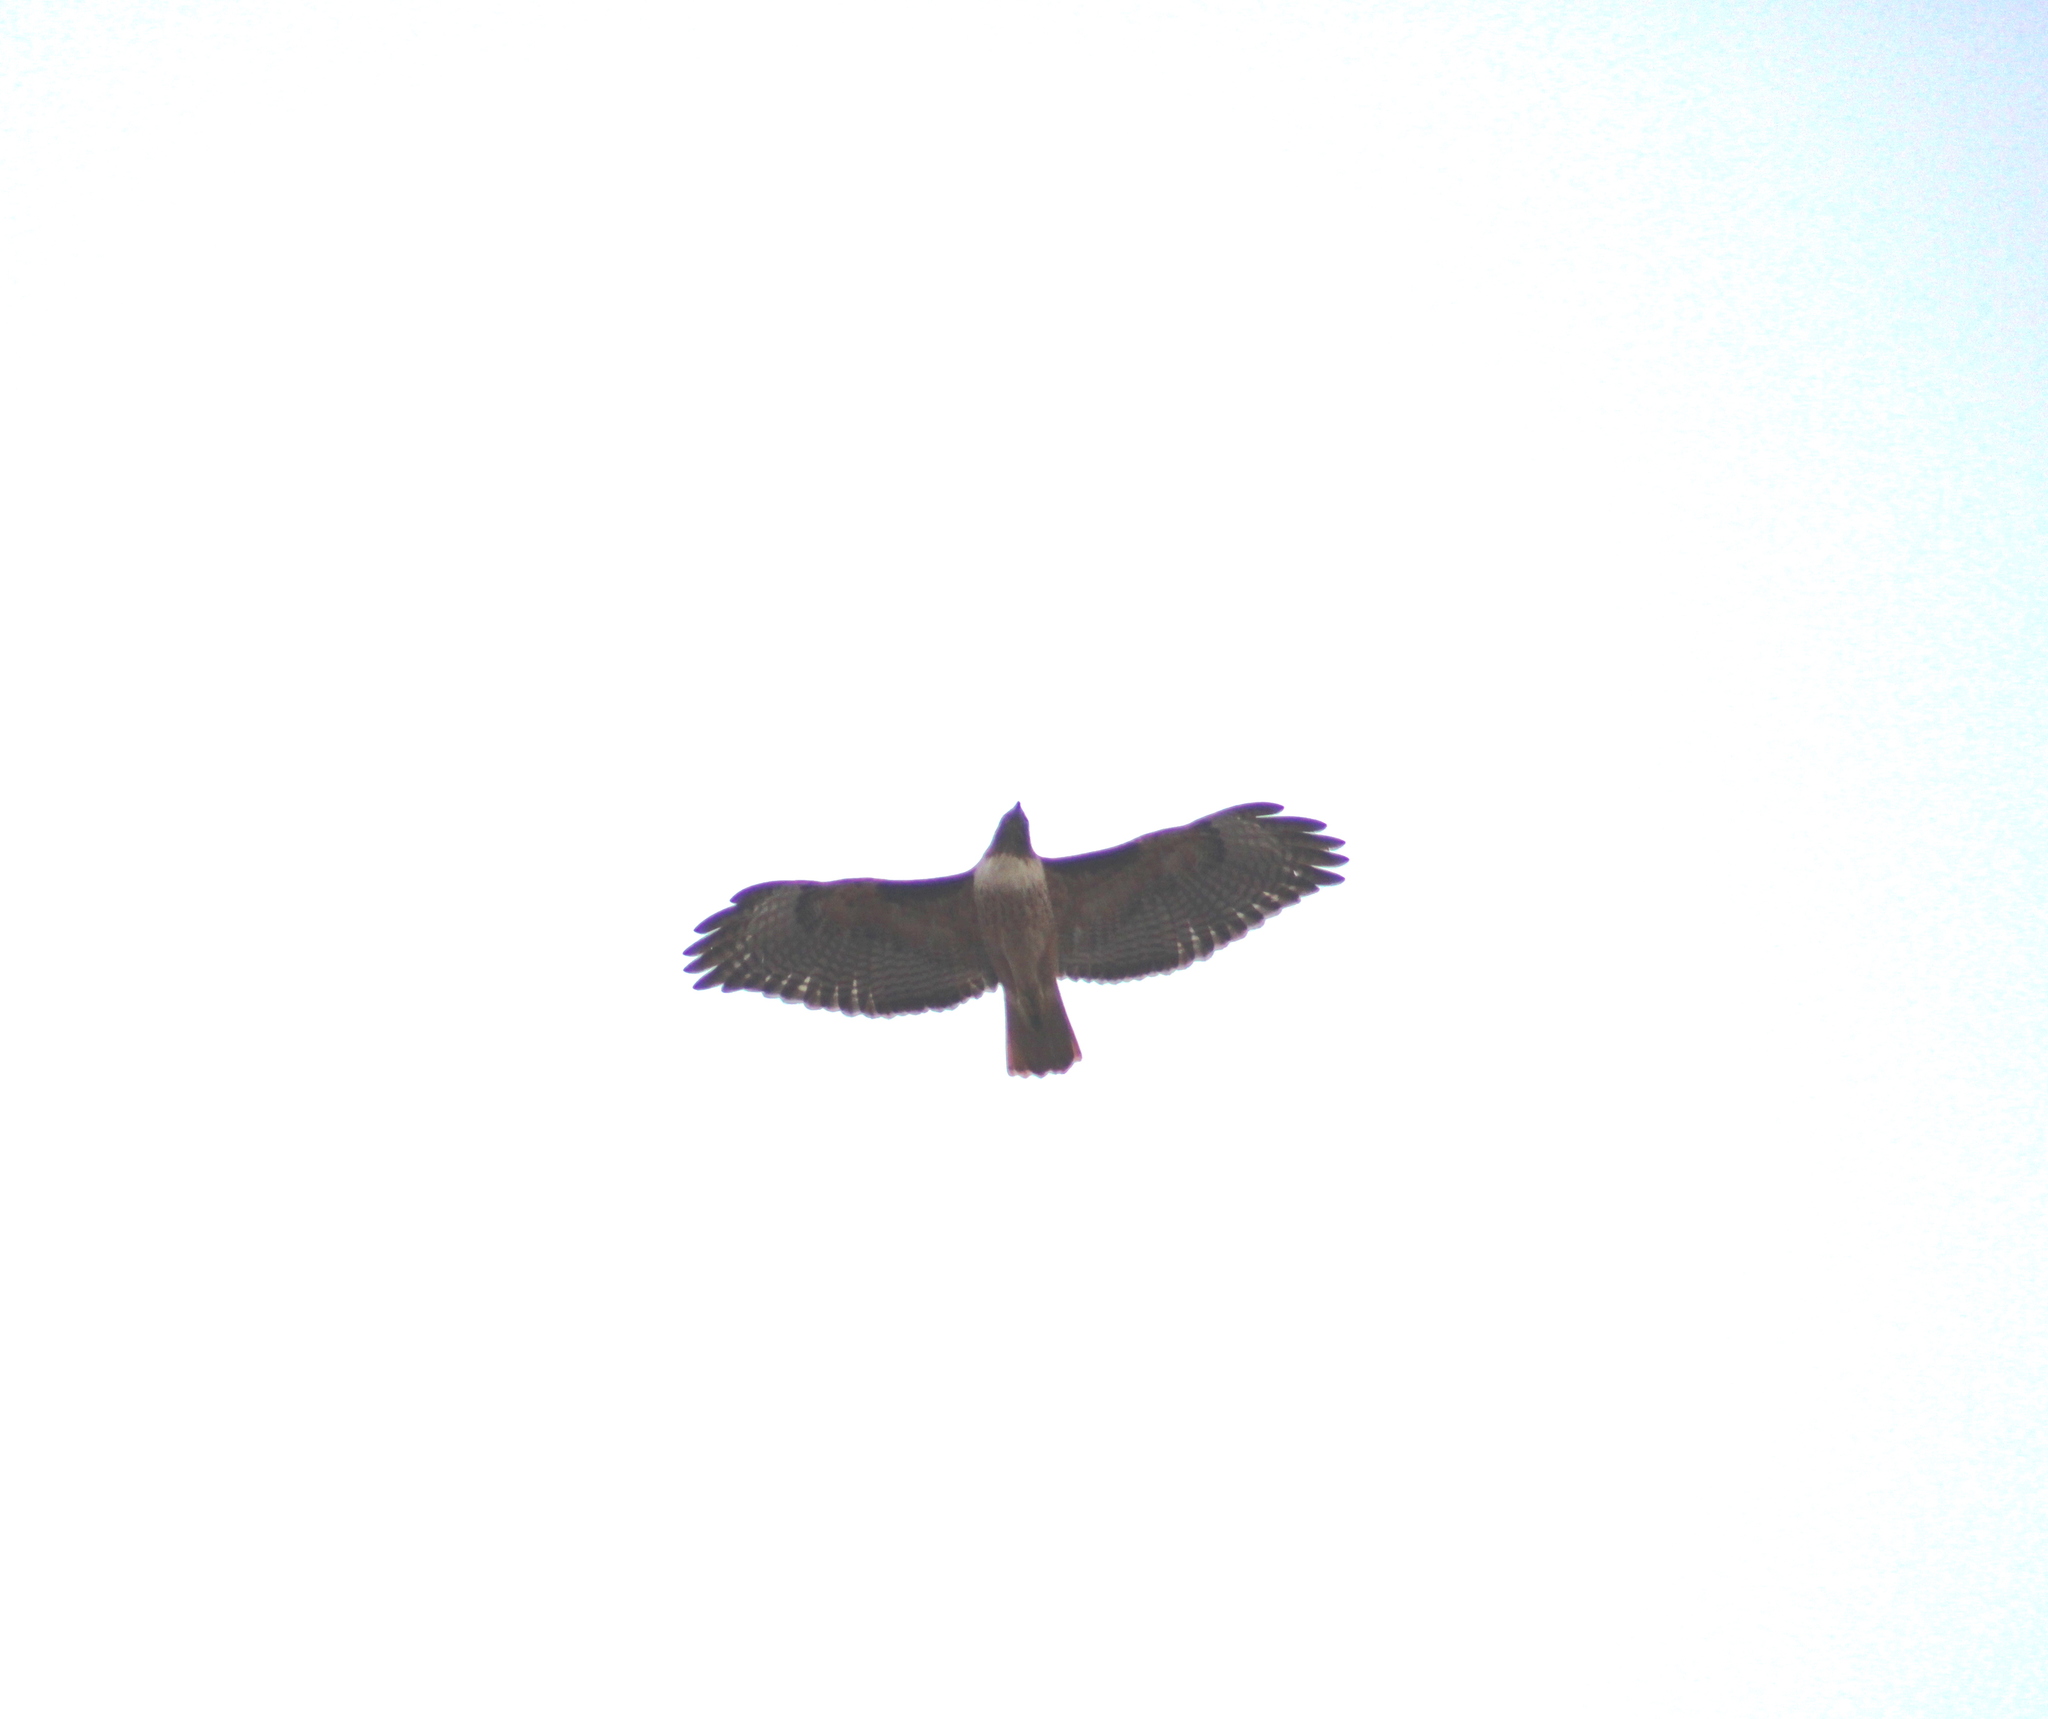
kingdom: Animalia
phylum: Chordata
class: Aves
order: Accipitriformes
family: Accipitridae
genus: Buteo
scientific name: Buteo jamaicensis
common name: Red-tailed hawk
